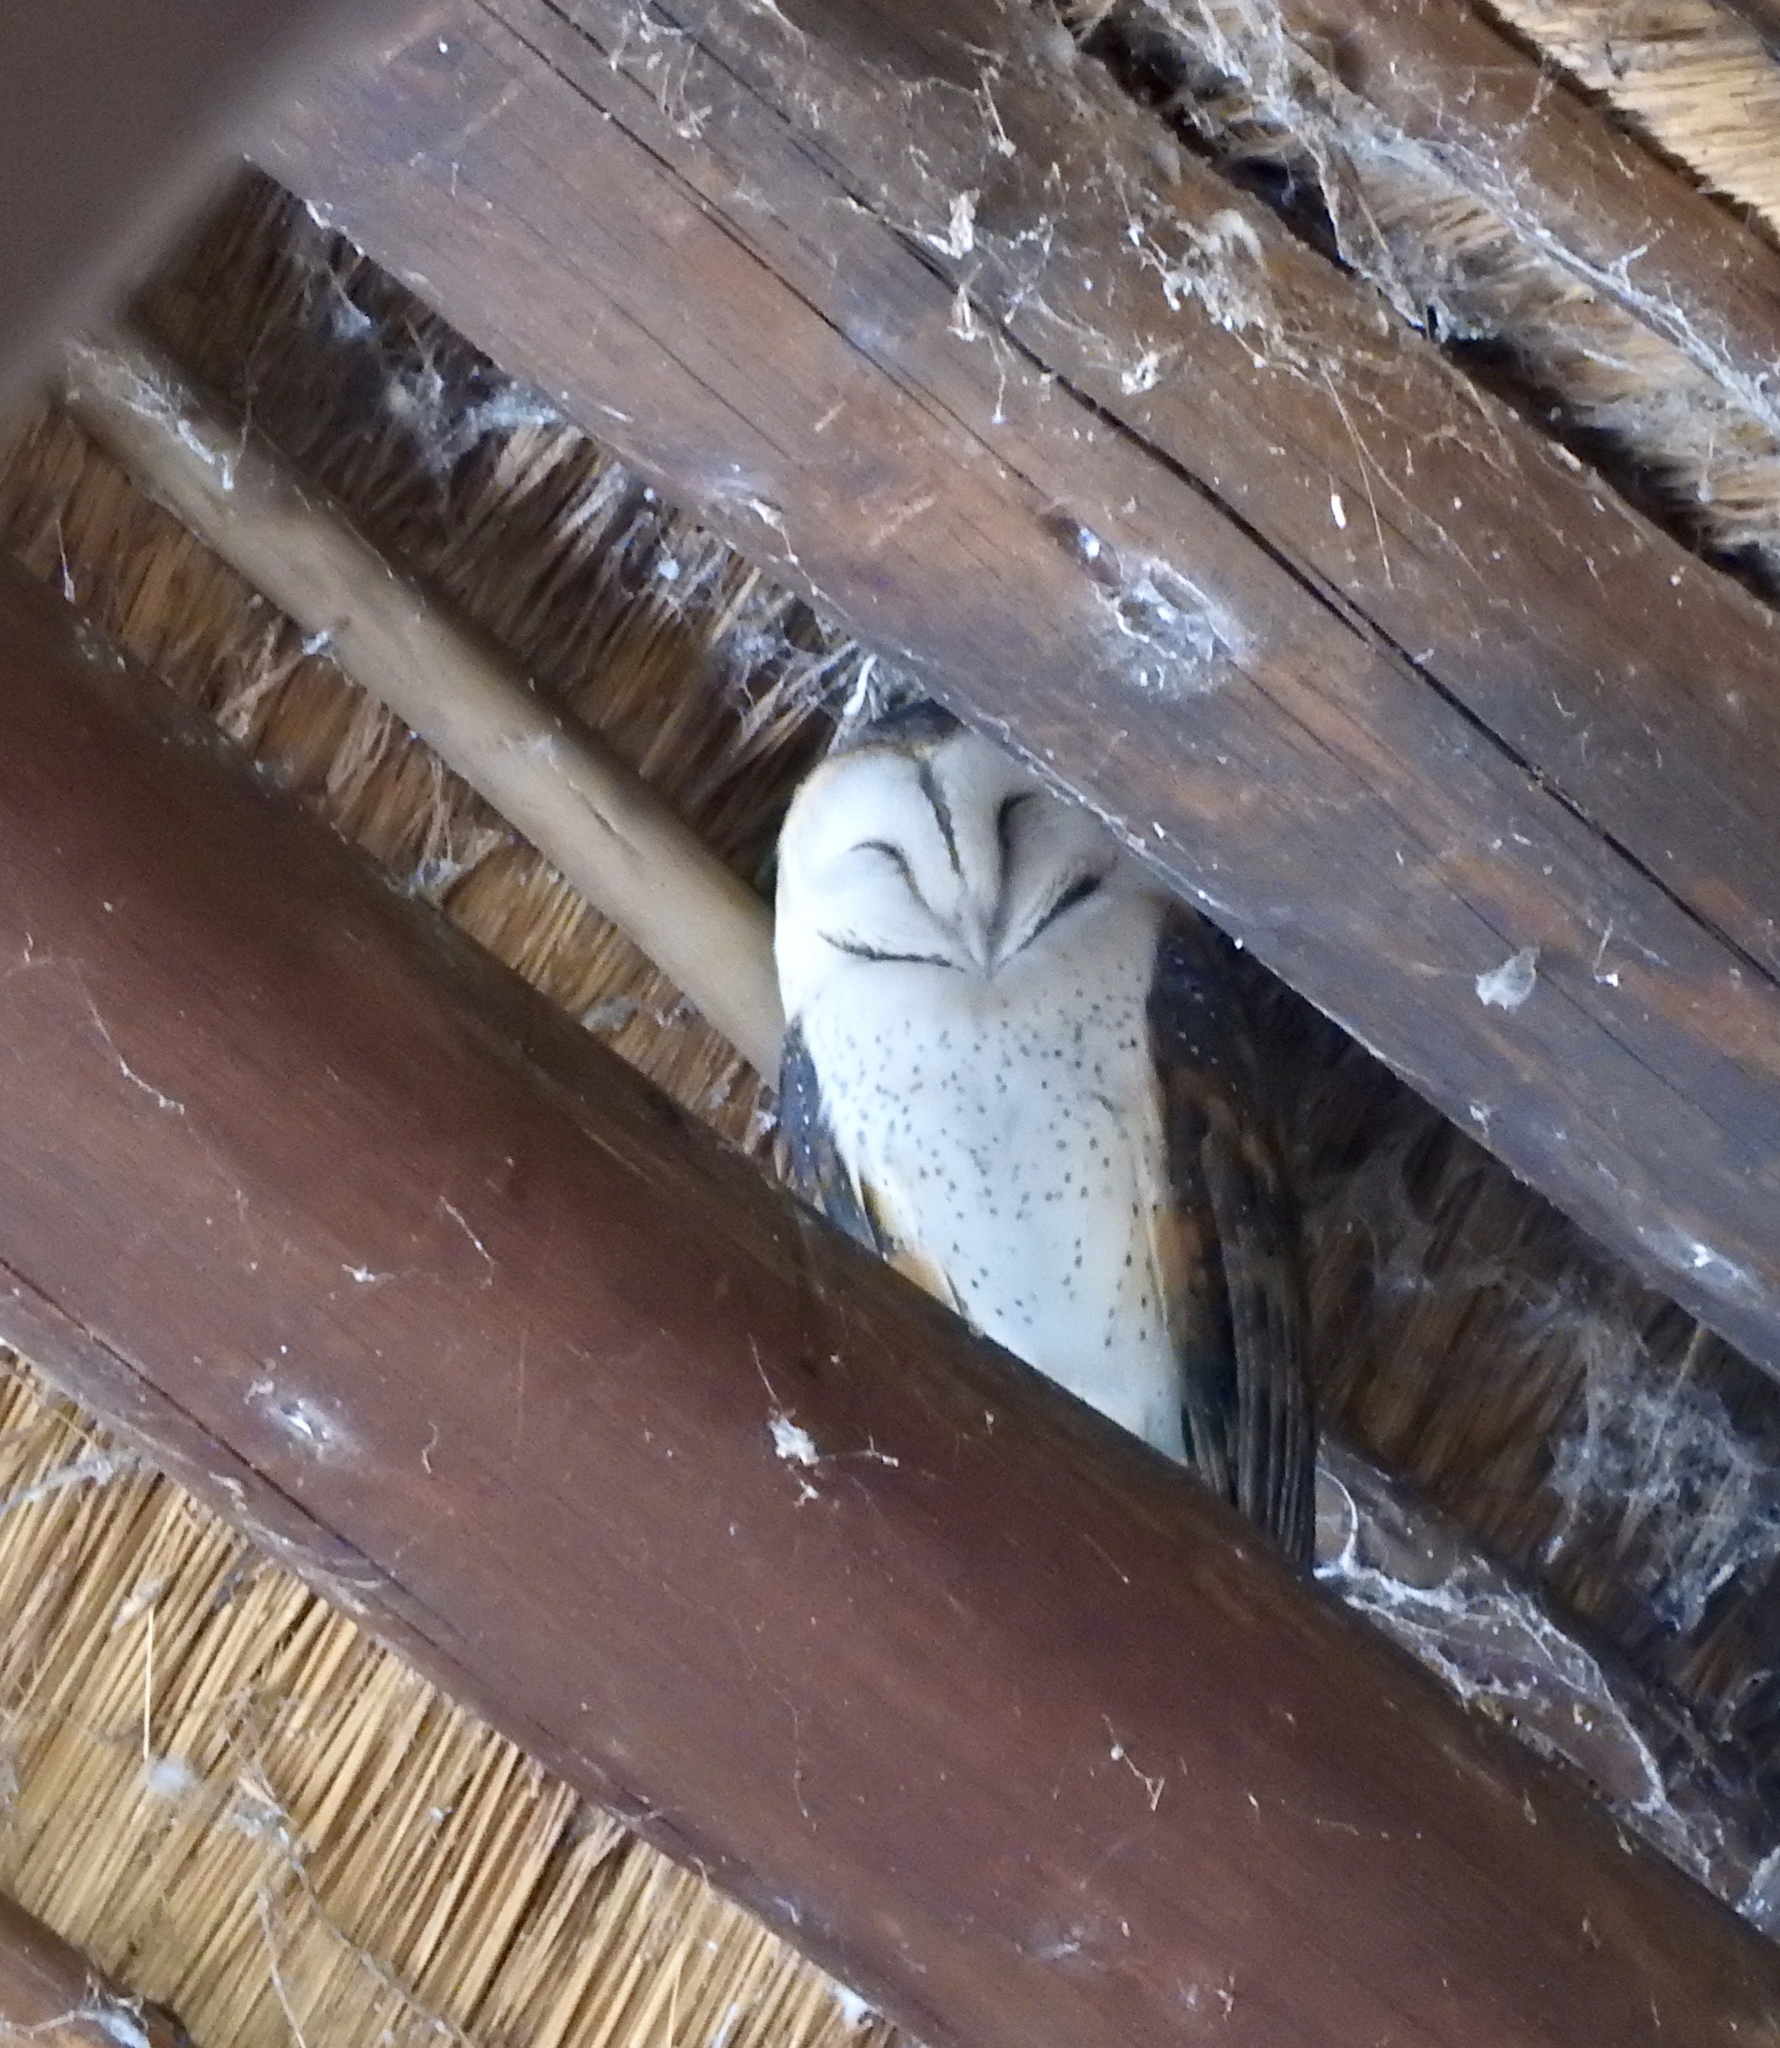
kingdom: Animalia
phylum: Chordata
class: Aves
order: Strigiformes
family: Tytonidae
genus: Tyto
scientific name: Tyto alba
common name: Barn owl
